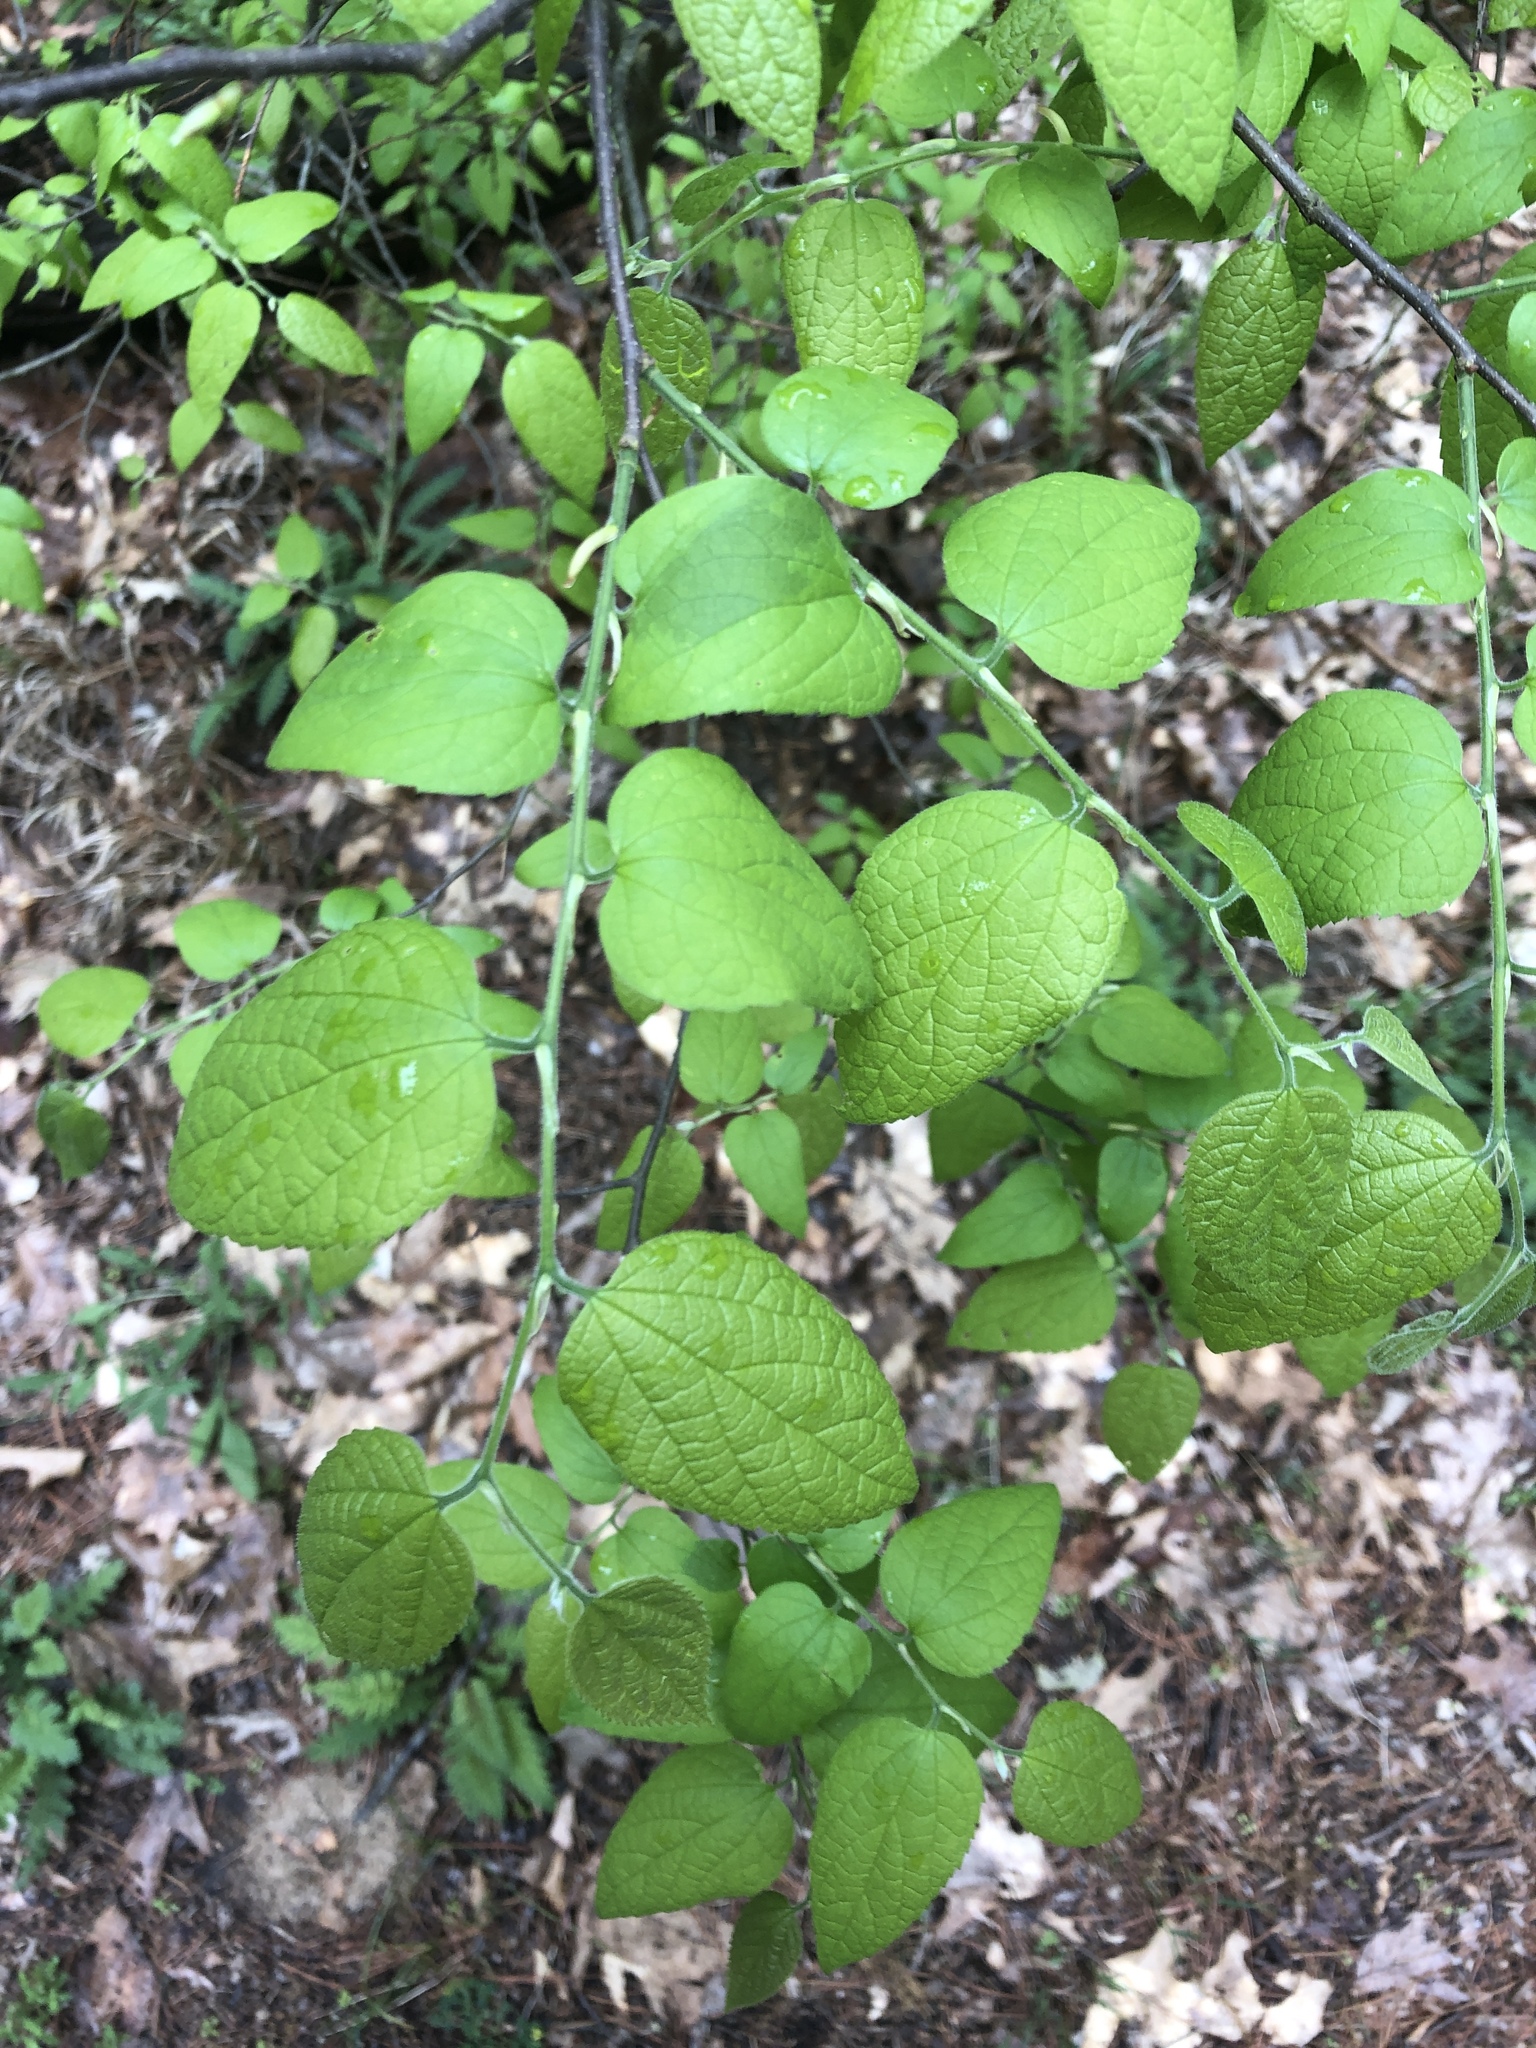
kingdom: Plantae
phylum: Tracheophyta
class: Magnoliopsida
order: Rosales
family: Cannabaceae
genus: Celtis
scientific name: Celtis tenuifolia
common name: Georgia hackberry
